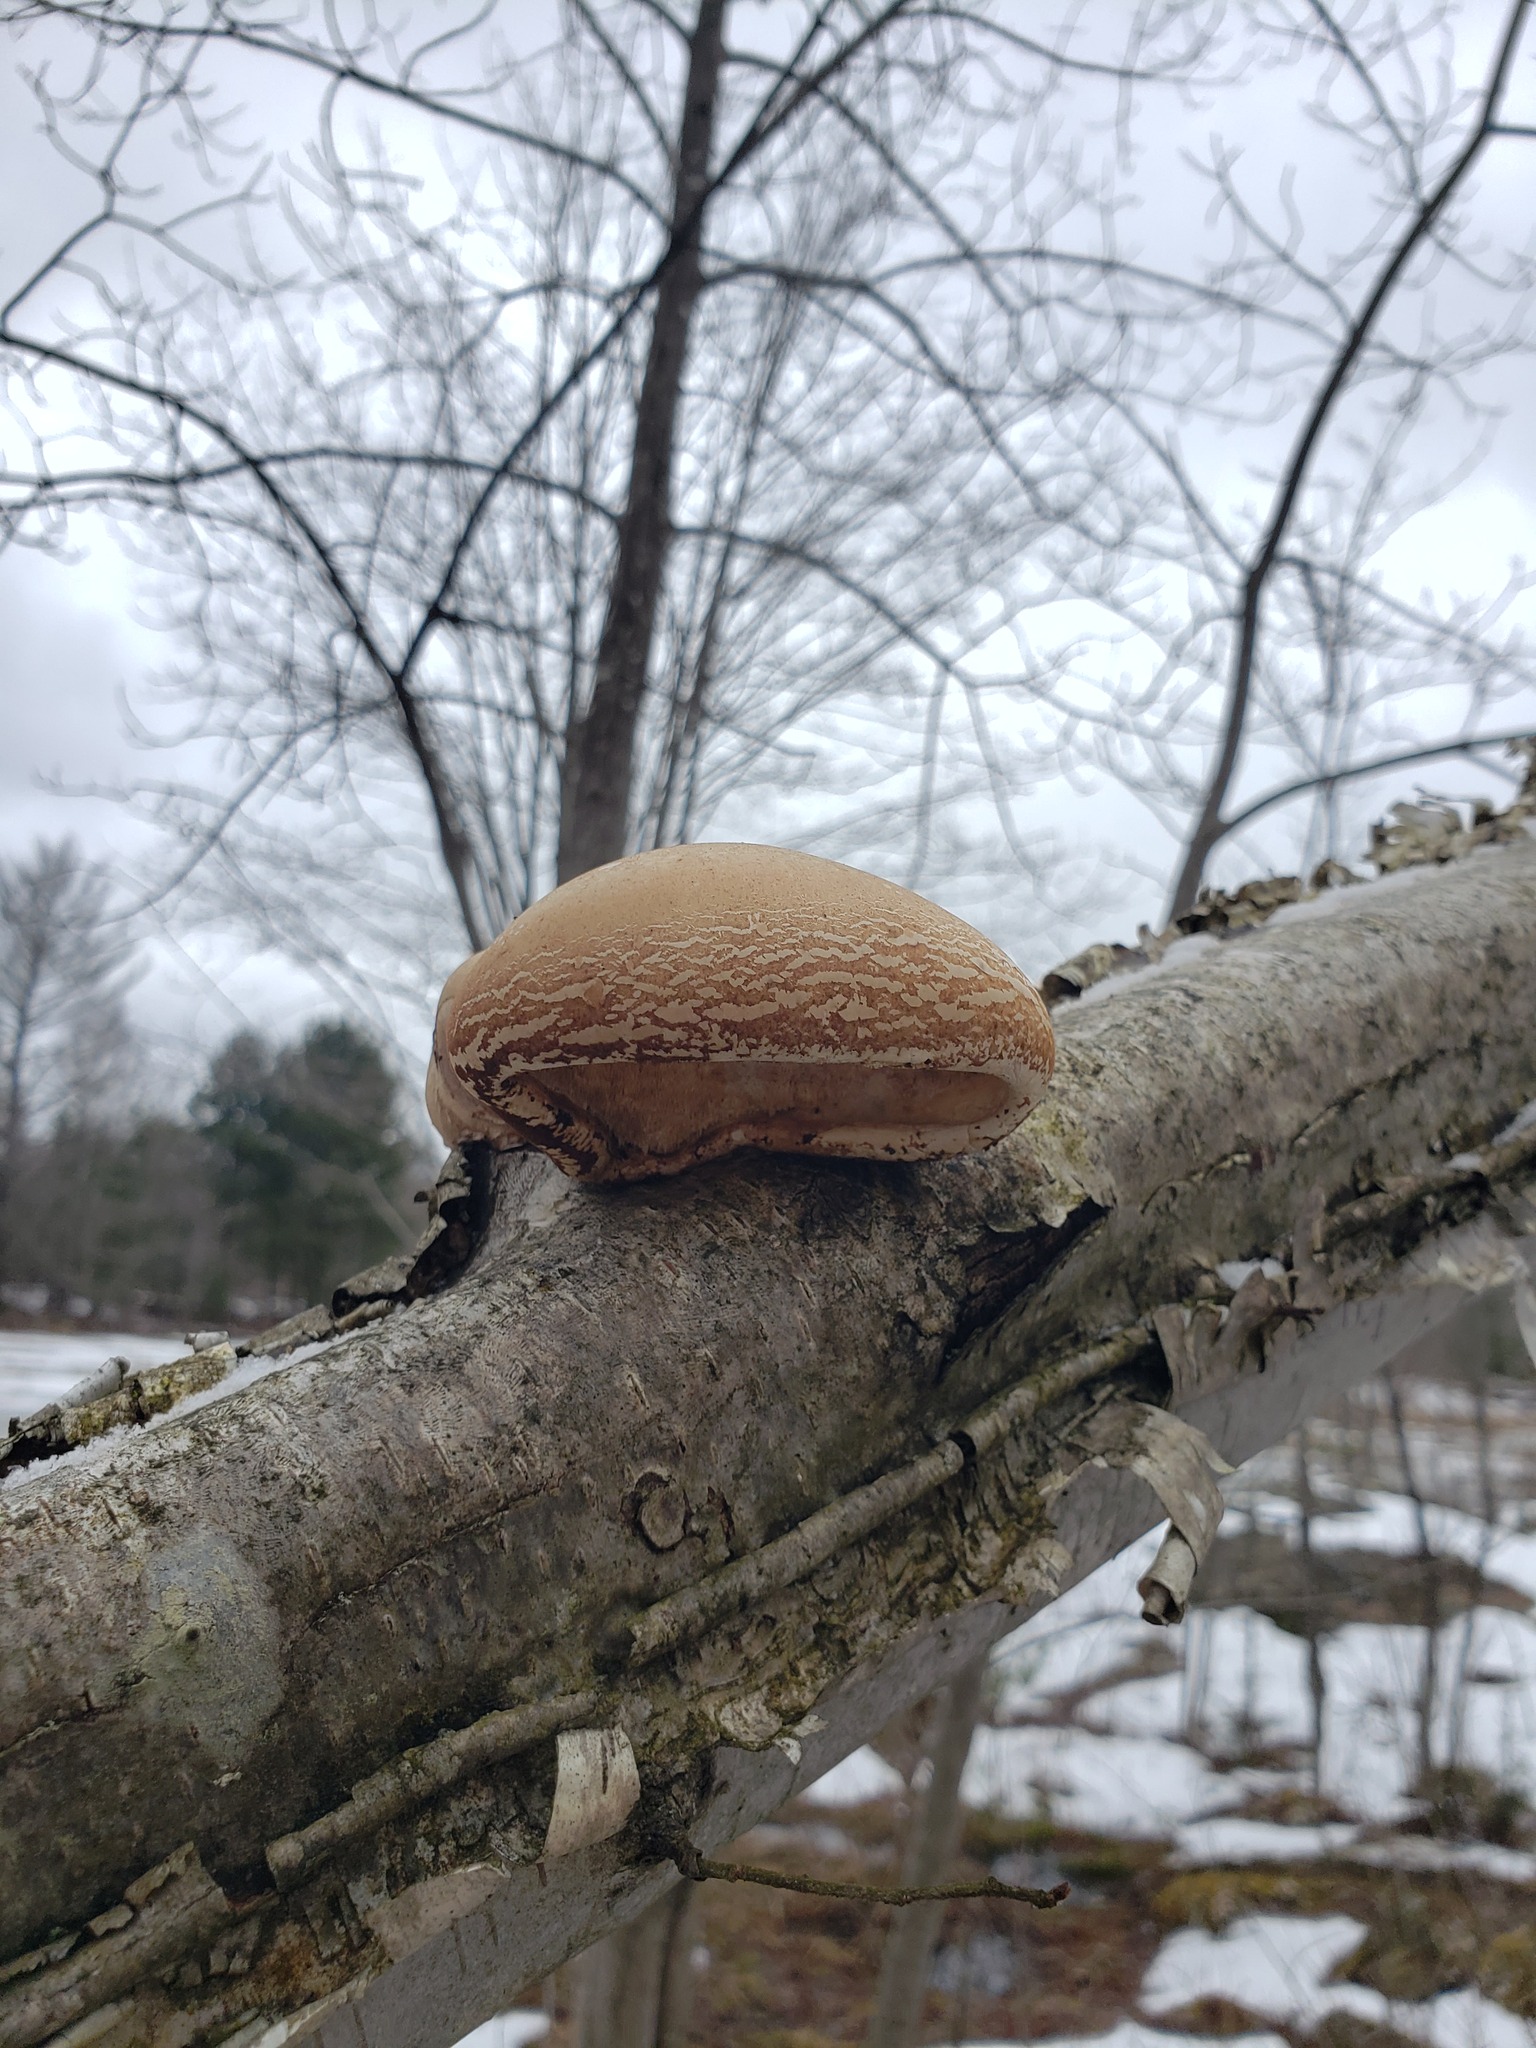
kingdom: Fungi
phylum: Basidiomycota
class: Agaricomycetes
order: Polyporales
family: Fomitopsidaceae
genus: Fomitopsis
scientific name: Fomitopsis betulina
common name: Birch polypore
